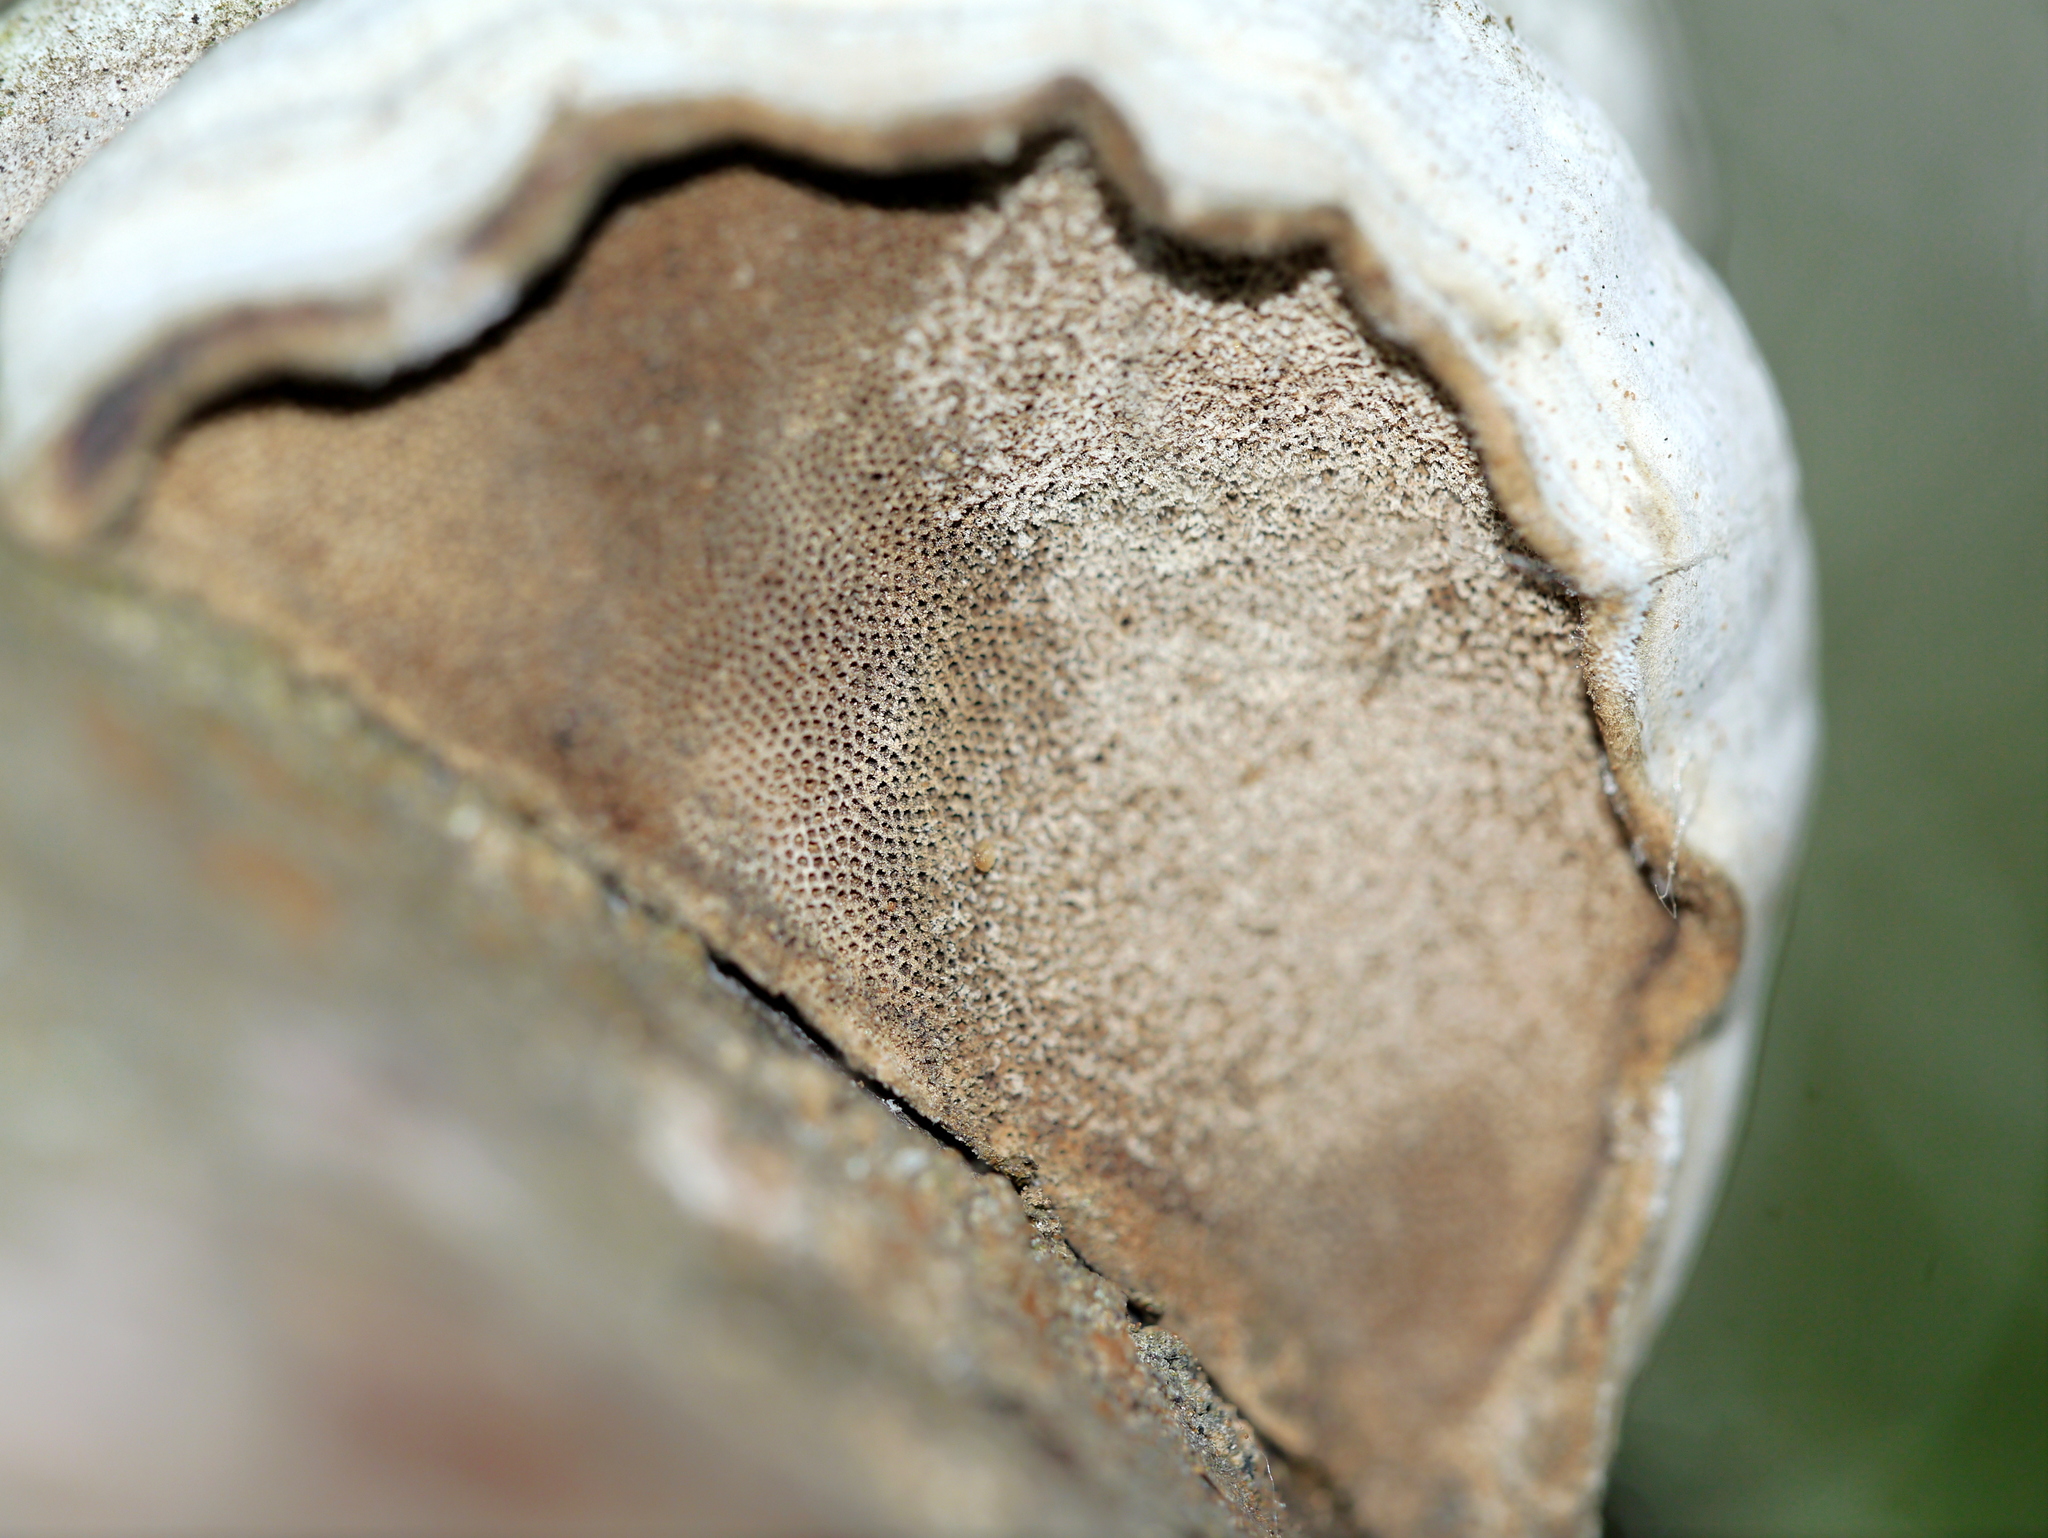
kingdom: Fungi
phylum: Basidiomycota
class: Agaricomycetes
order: Polyporales
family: Polyporaceae
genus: Fomes
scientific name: Fomes fomentarius
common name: Hoof fungus
